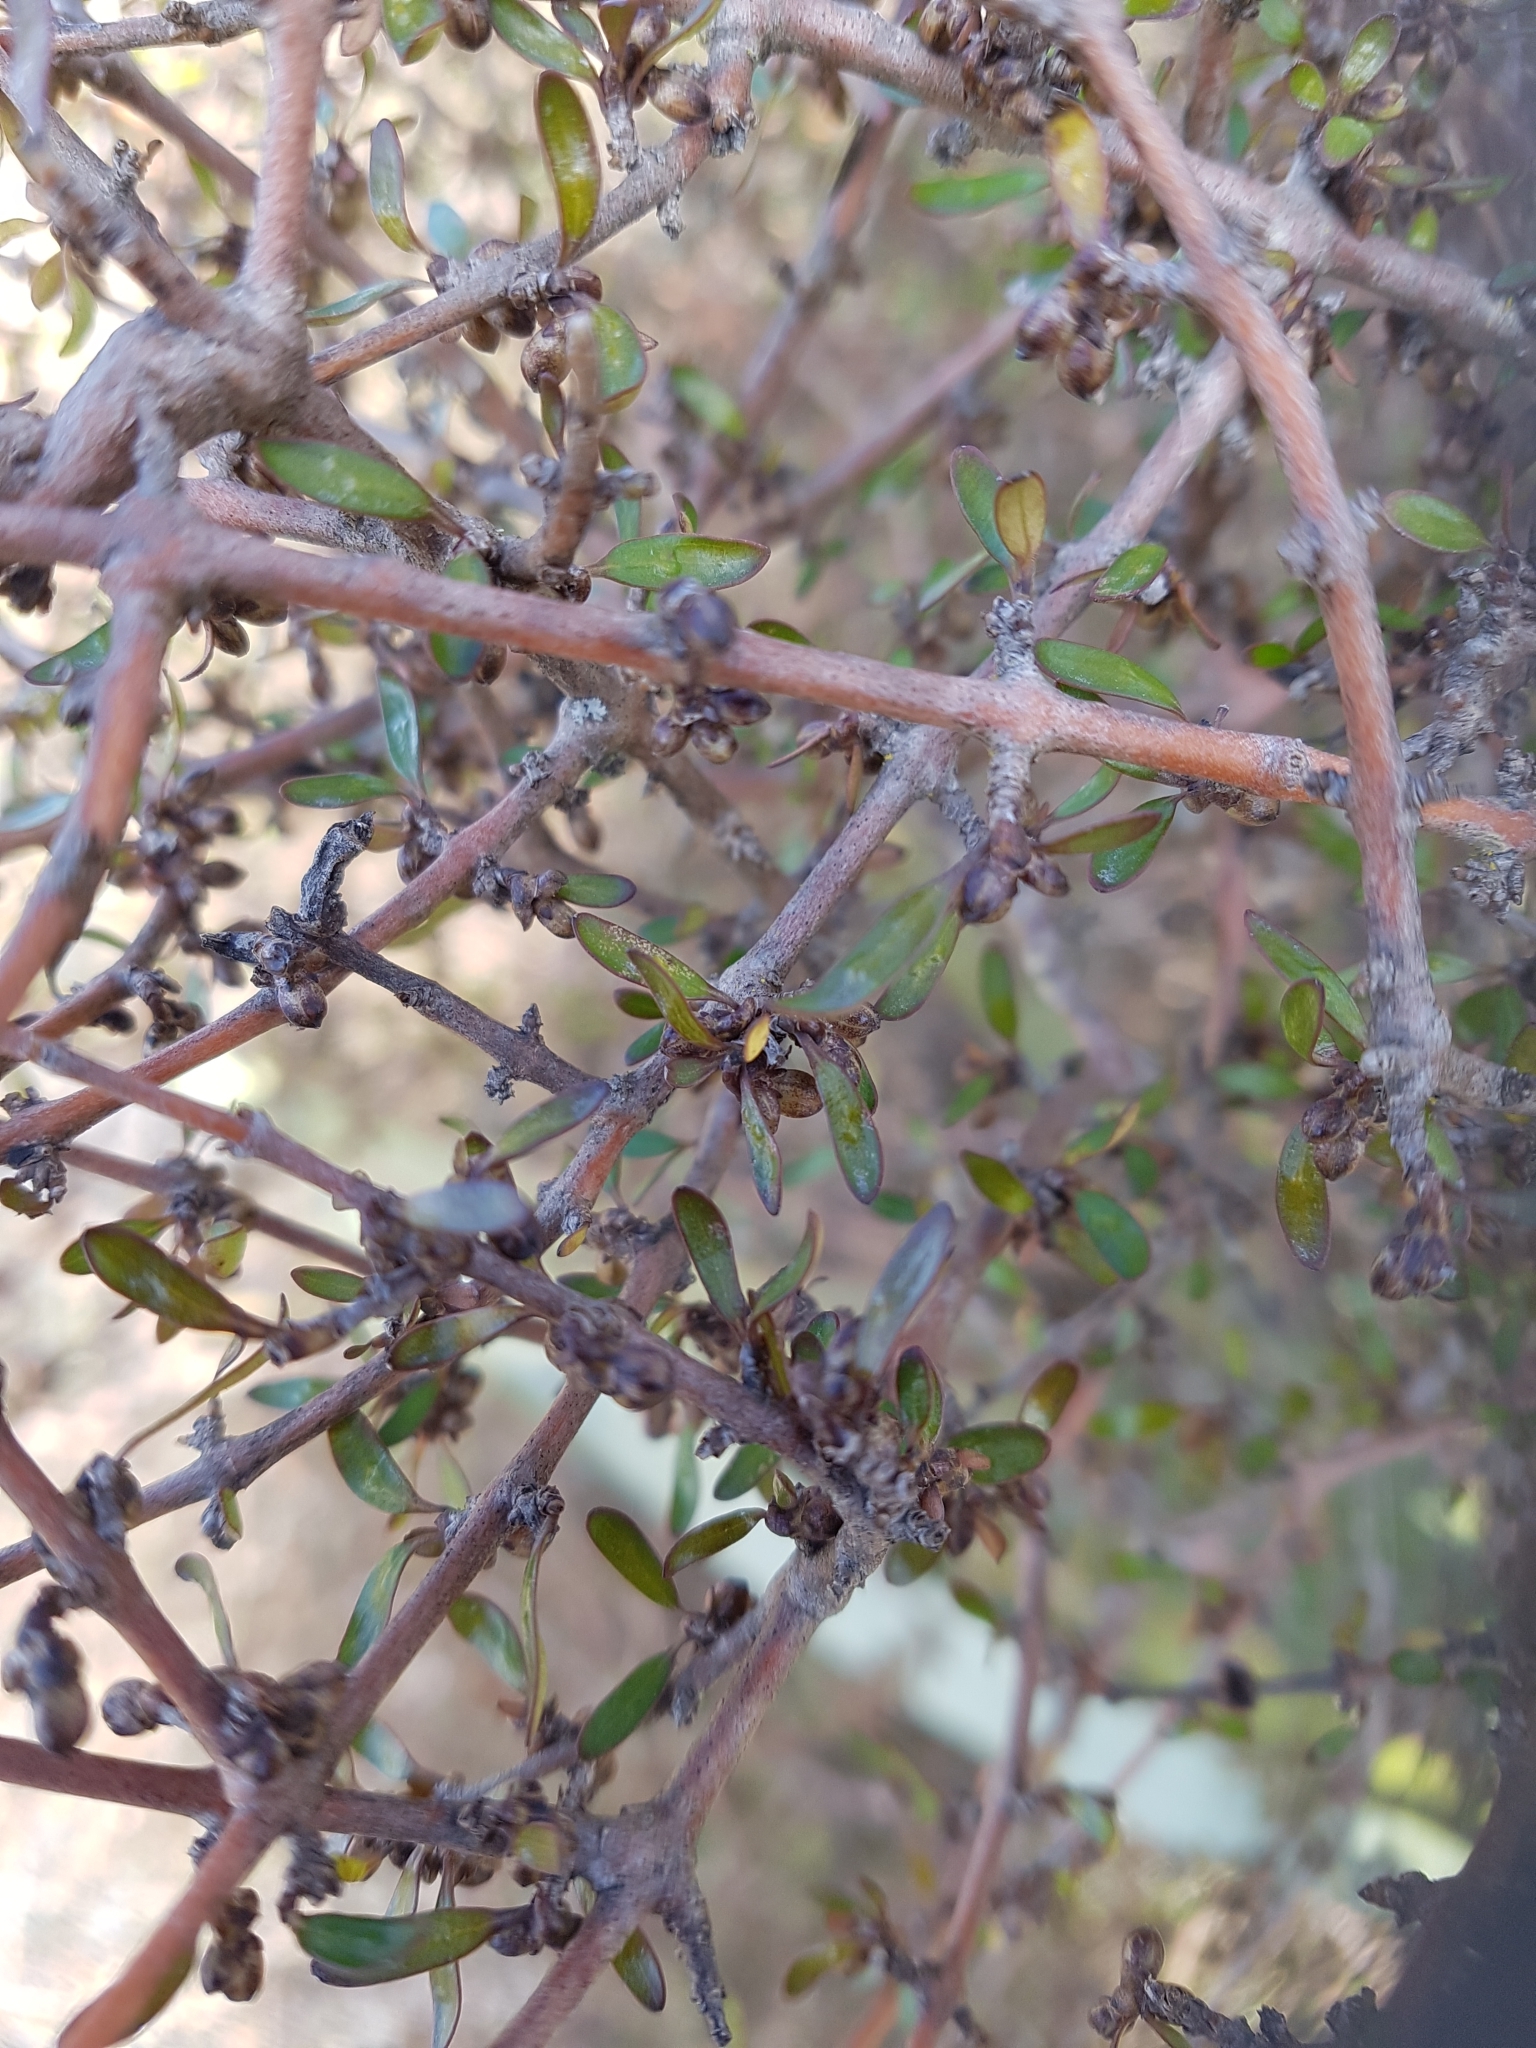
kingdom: Plantae
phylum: Tracheophyta
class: Magnoliopsida
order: Gentianales
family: Rubiaceae
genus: Coprosma
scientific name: Coprosma propinqua
